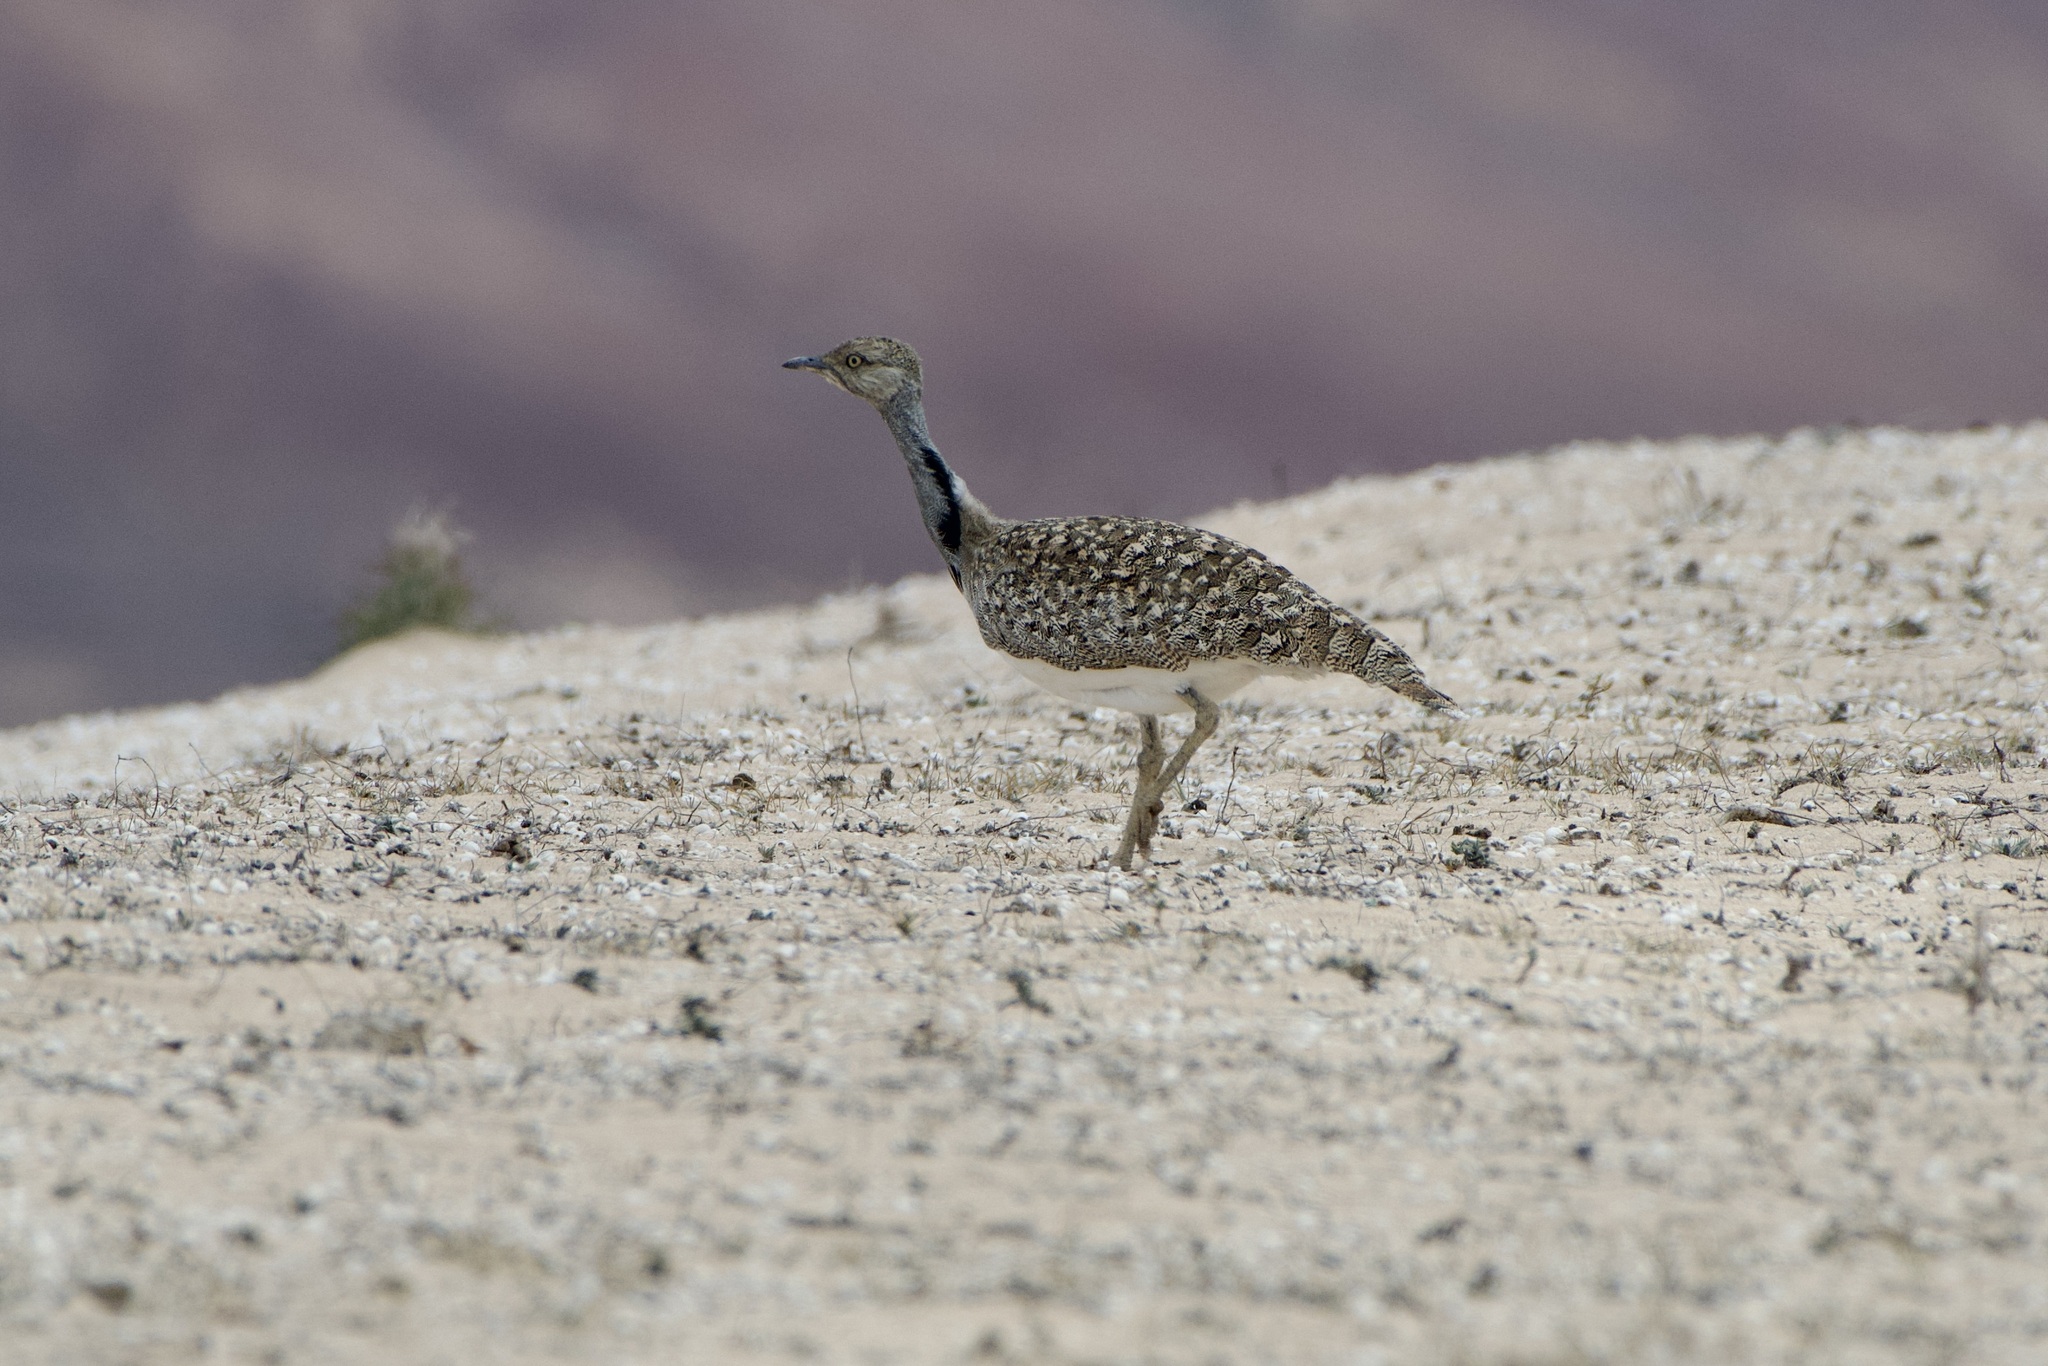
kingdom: Animalia
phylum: Chordata
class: Aves
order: Otidiformes
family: Otididae
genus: Chlamydotis
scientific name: Chlamydotis undulata
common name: Houbara bustard
